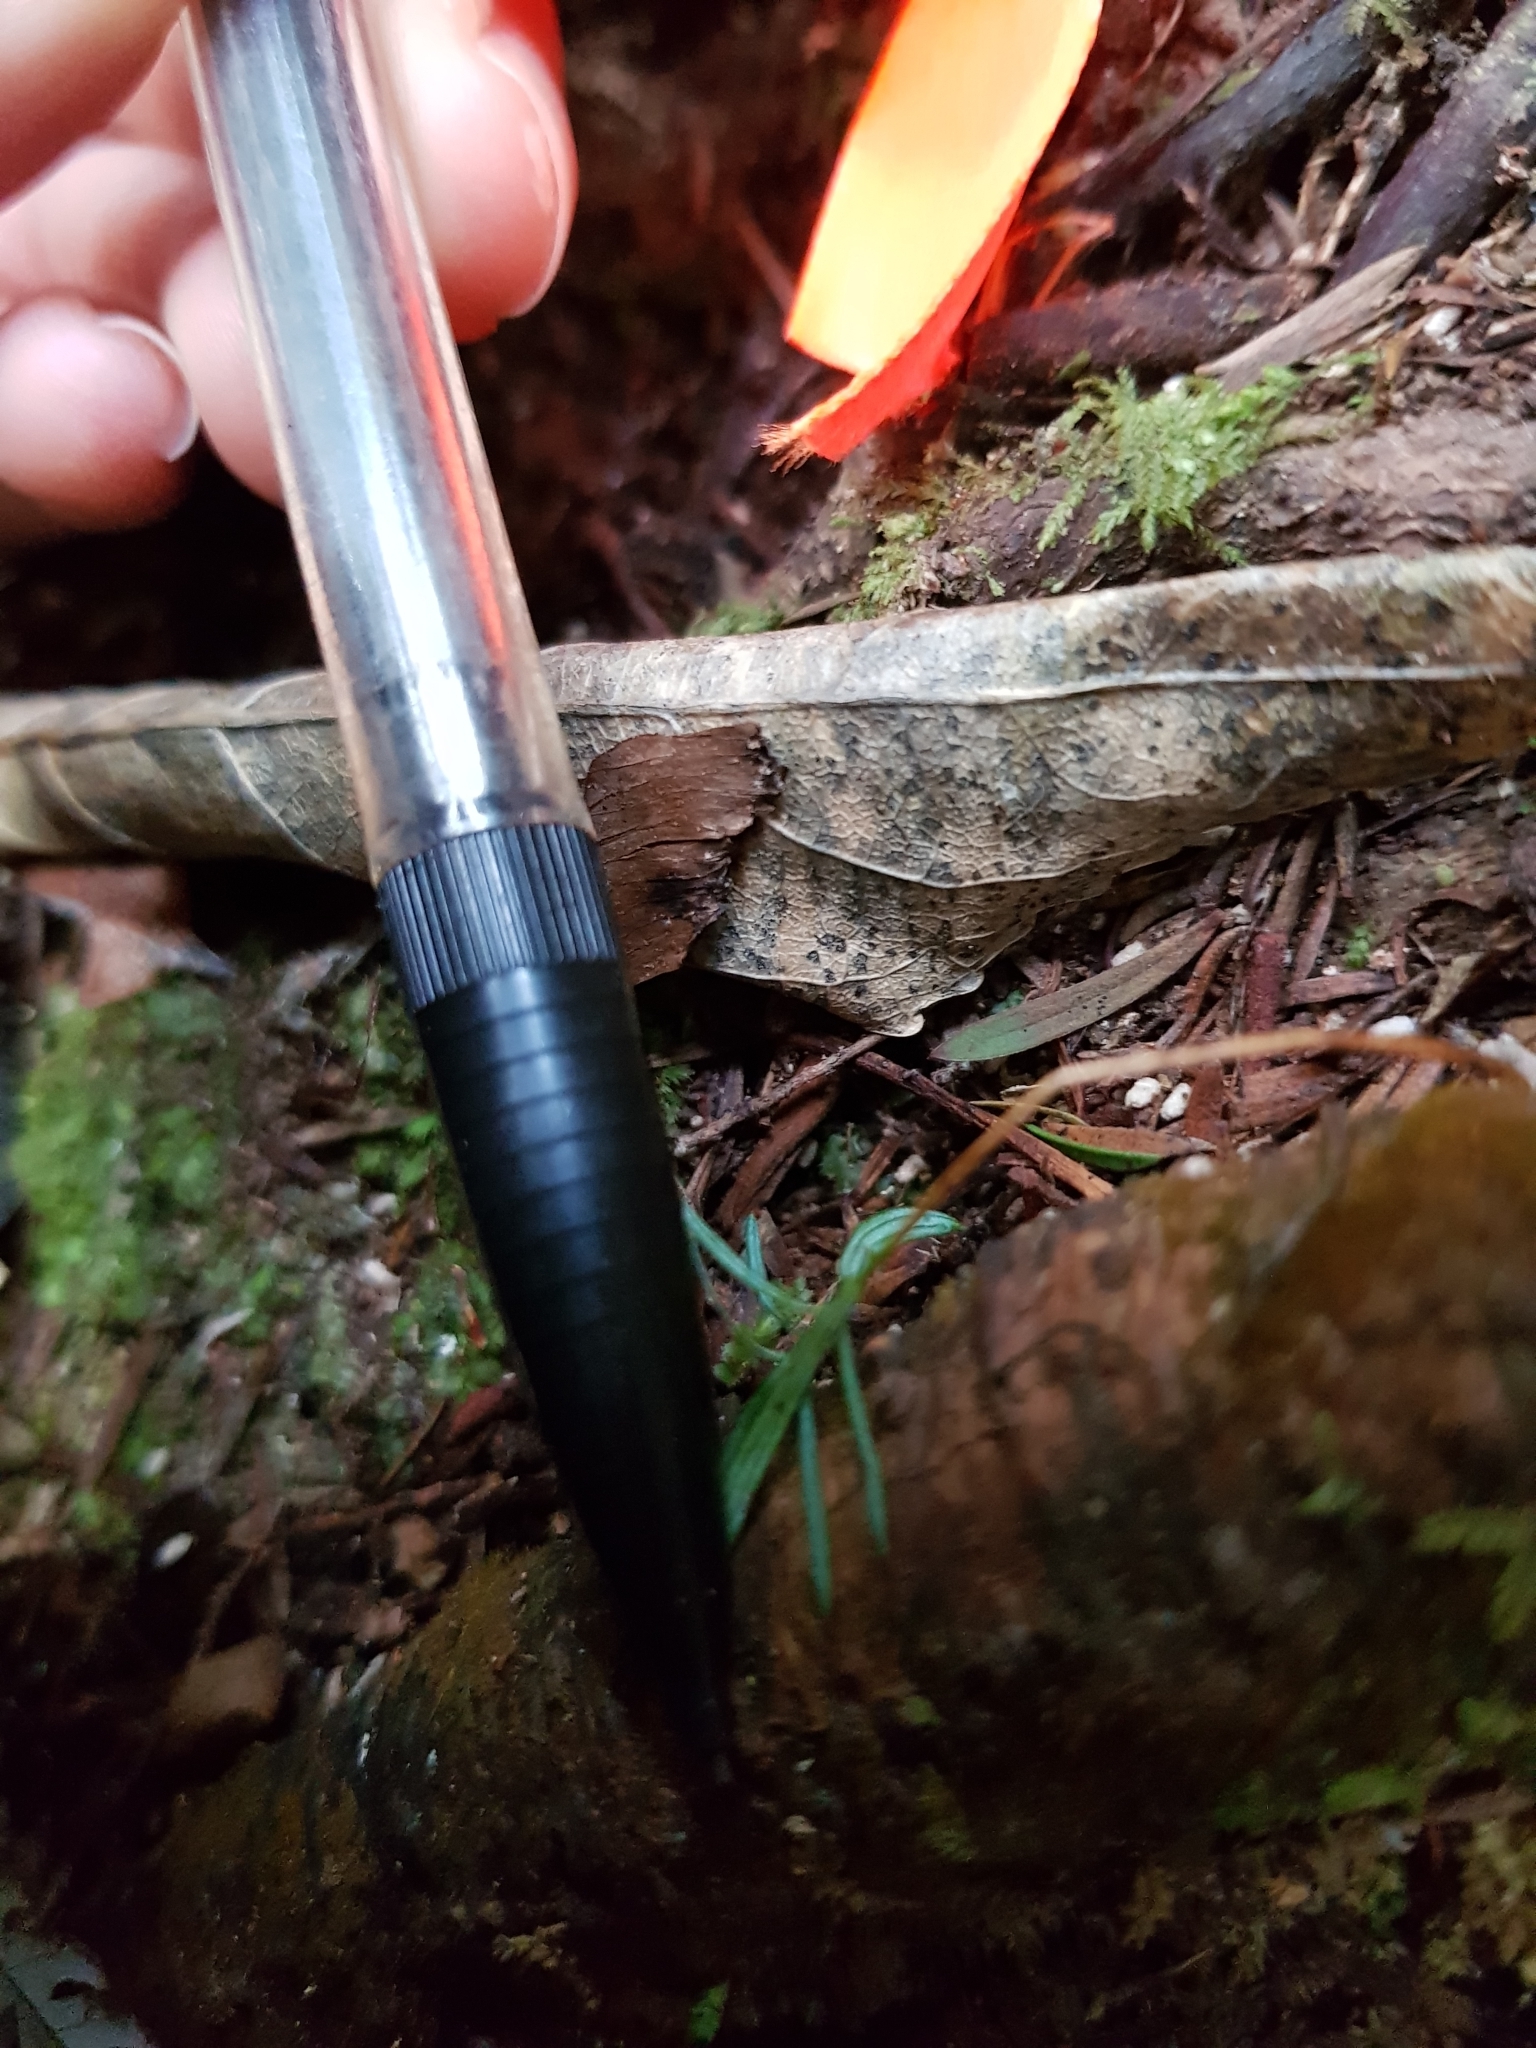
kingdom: Plantae
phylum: Tracheophyta
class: Pinopsida
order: Pinales
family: Podocarpaceae
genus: Prumnopitys
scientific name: Prumnopitys taxifolia
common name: Matai
